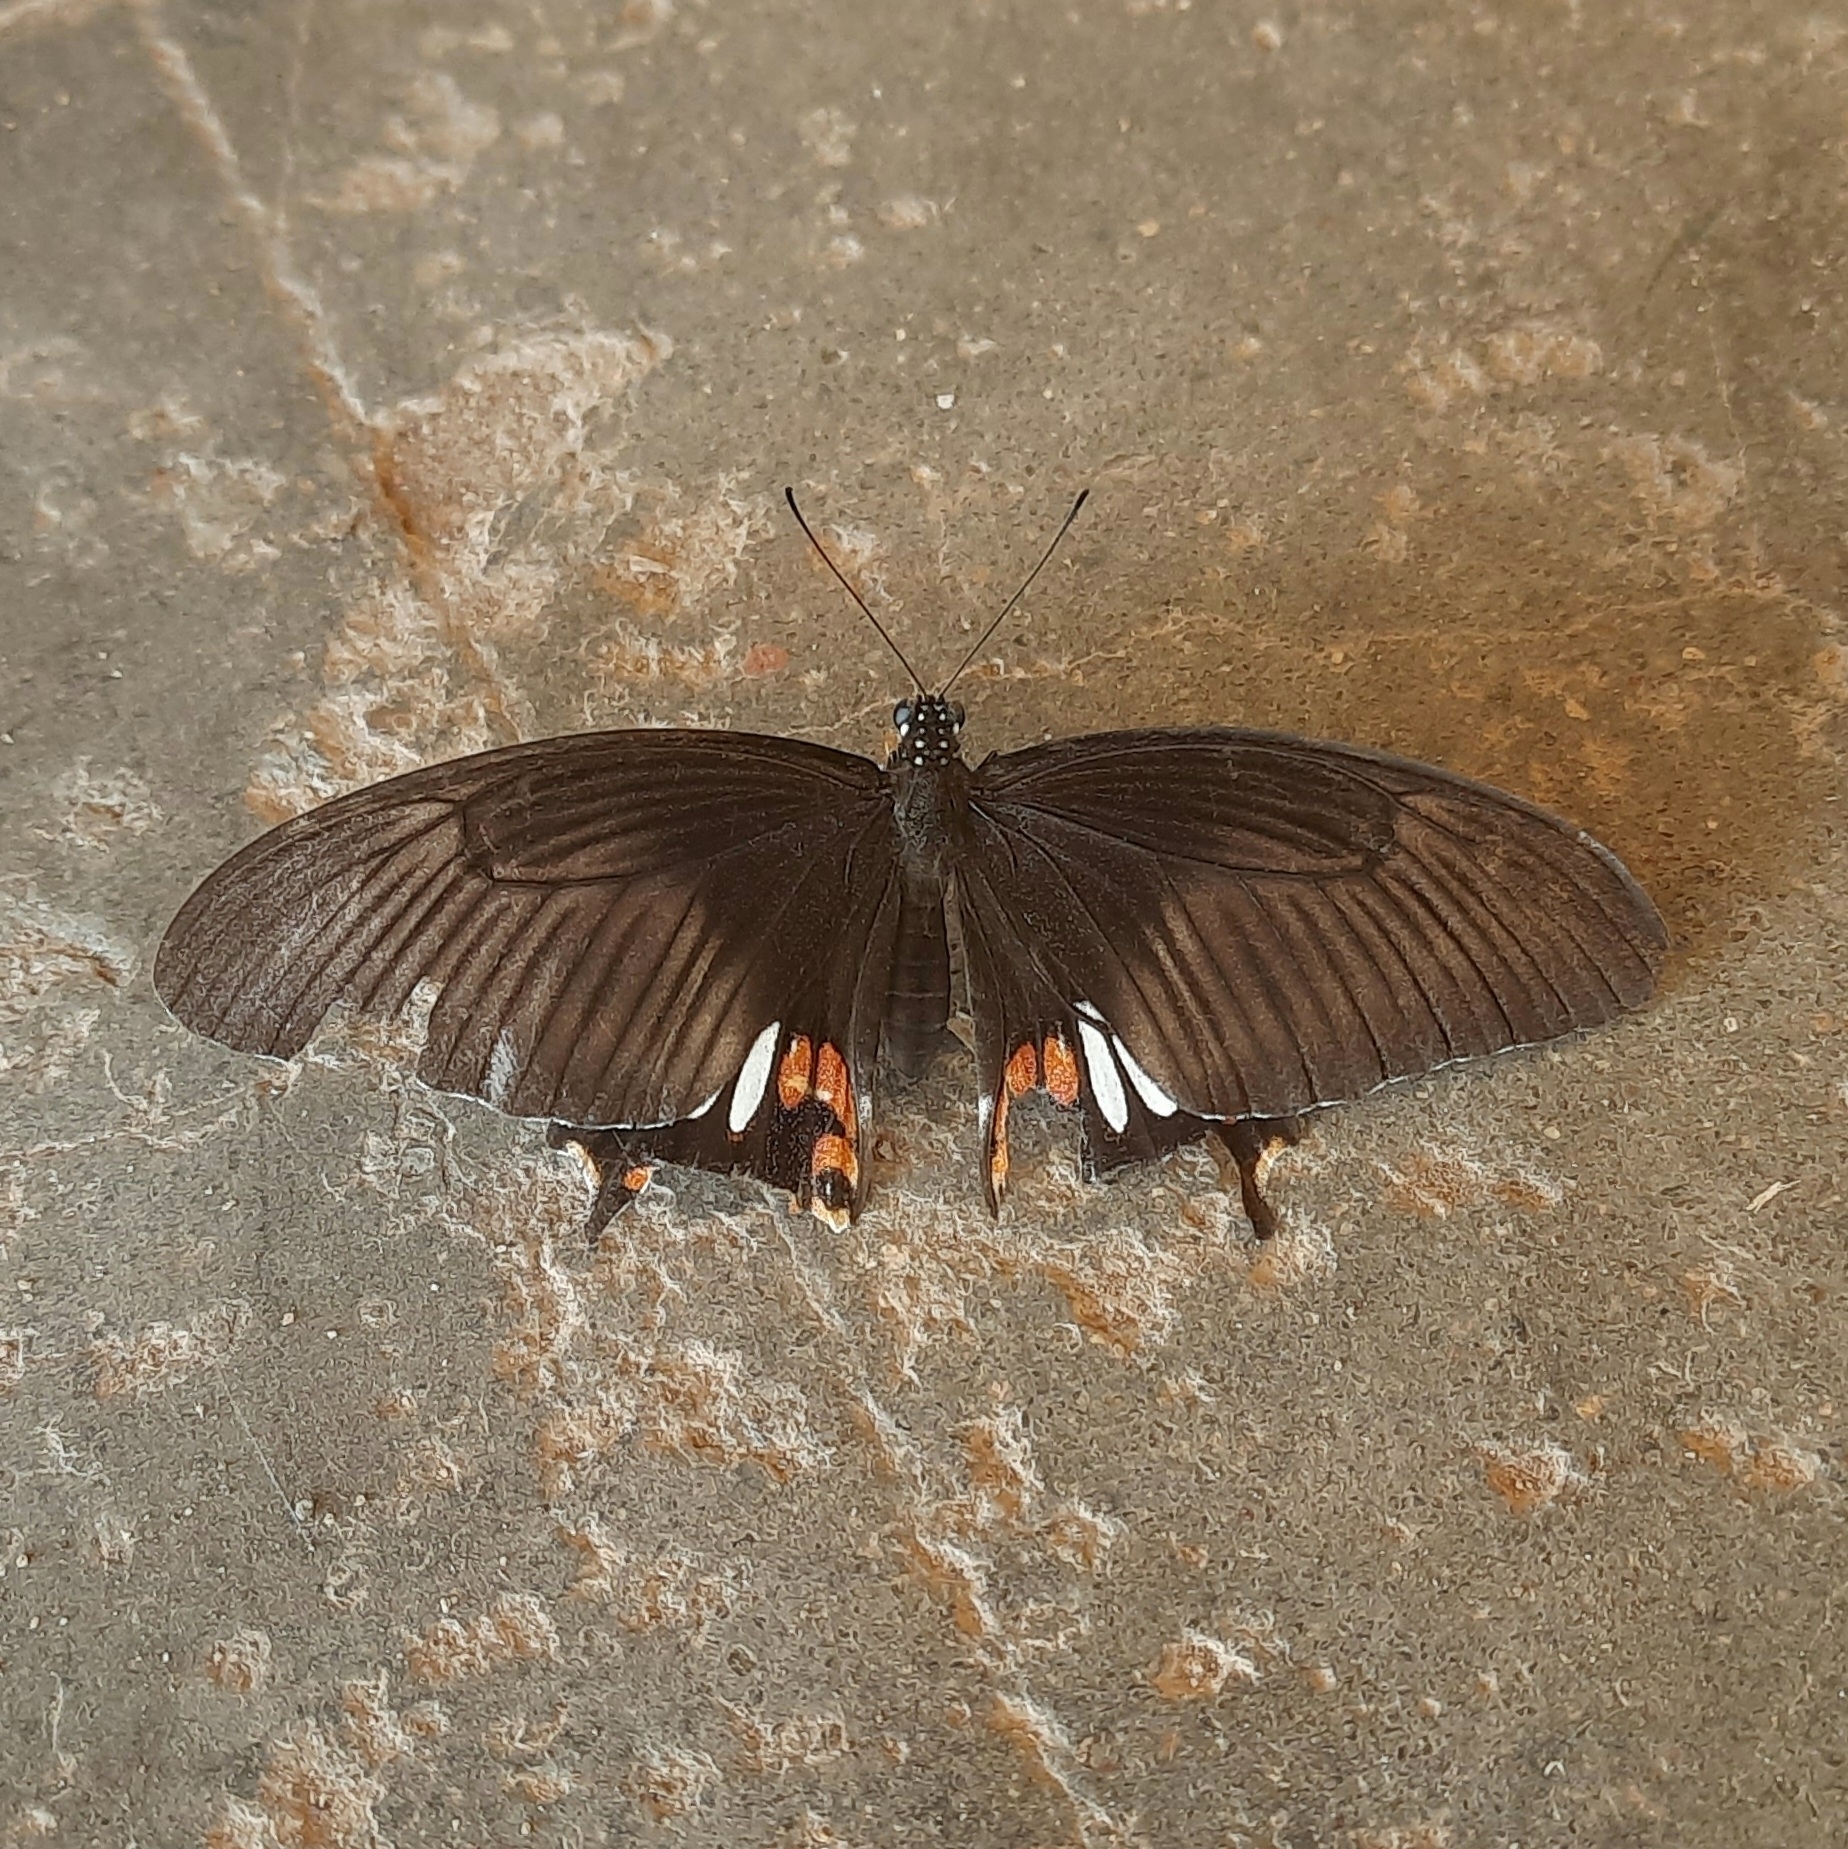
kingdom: Animalia
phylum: Arthropoda
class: Insecta
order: Lepidoptera
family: Papilionidae
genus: Papilio
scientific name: Papilio polytes
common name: Common mormon
